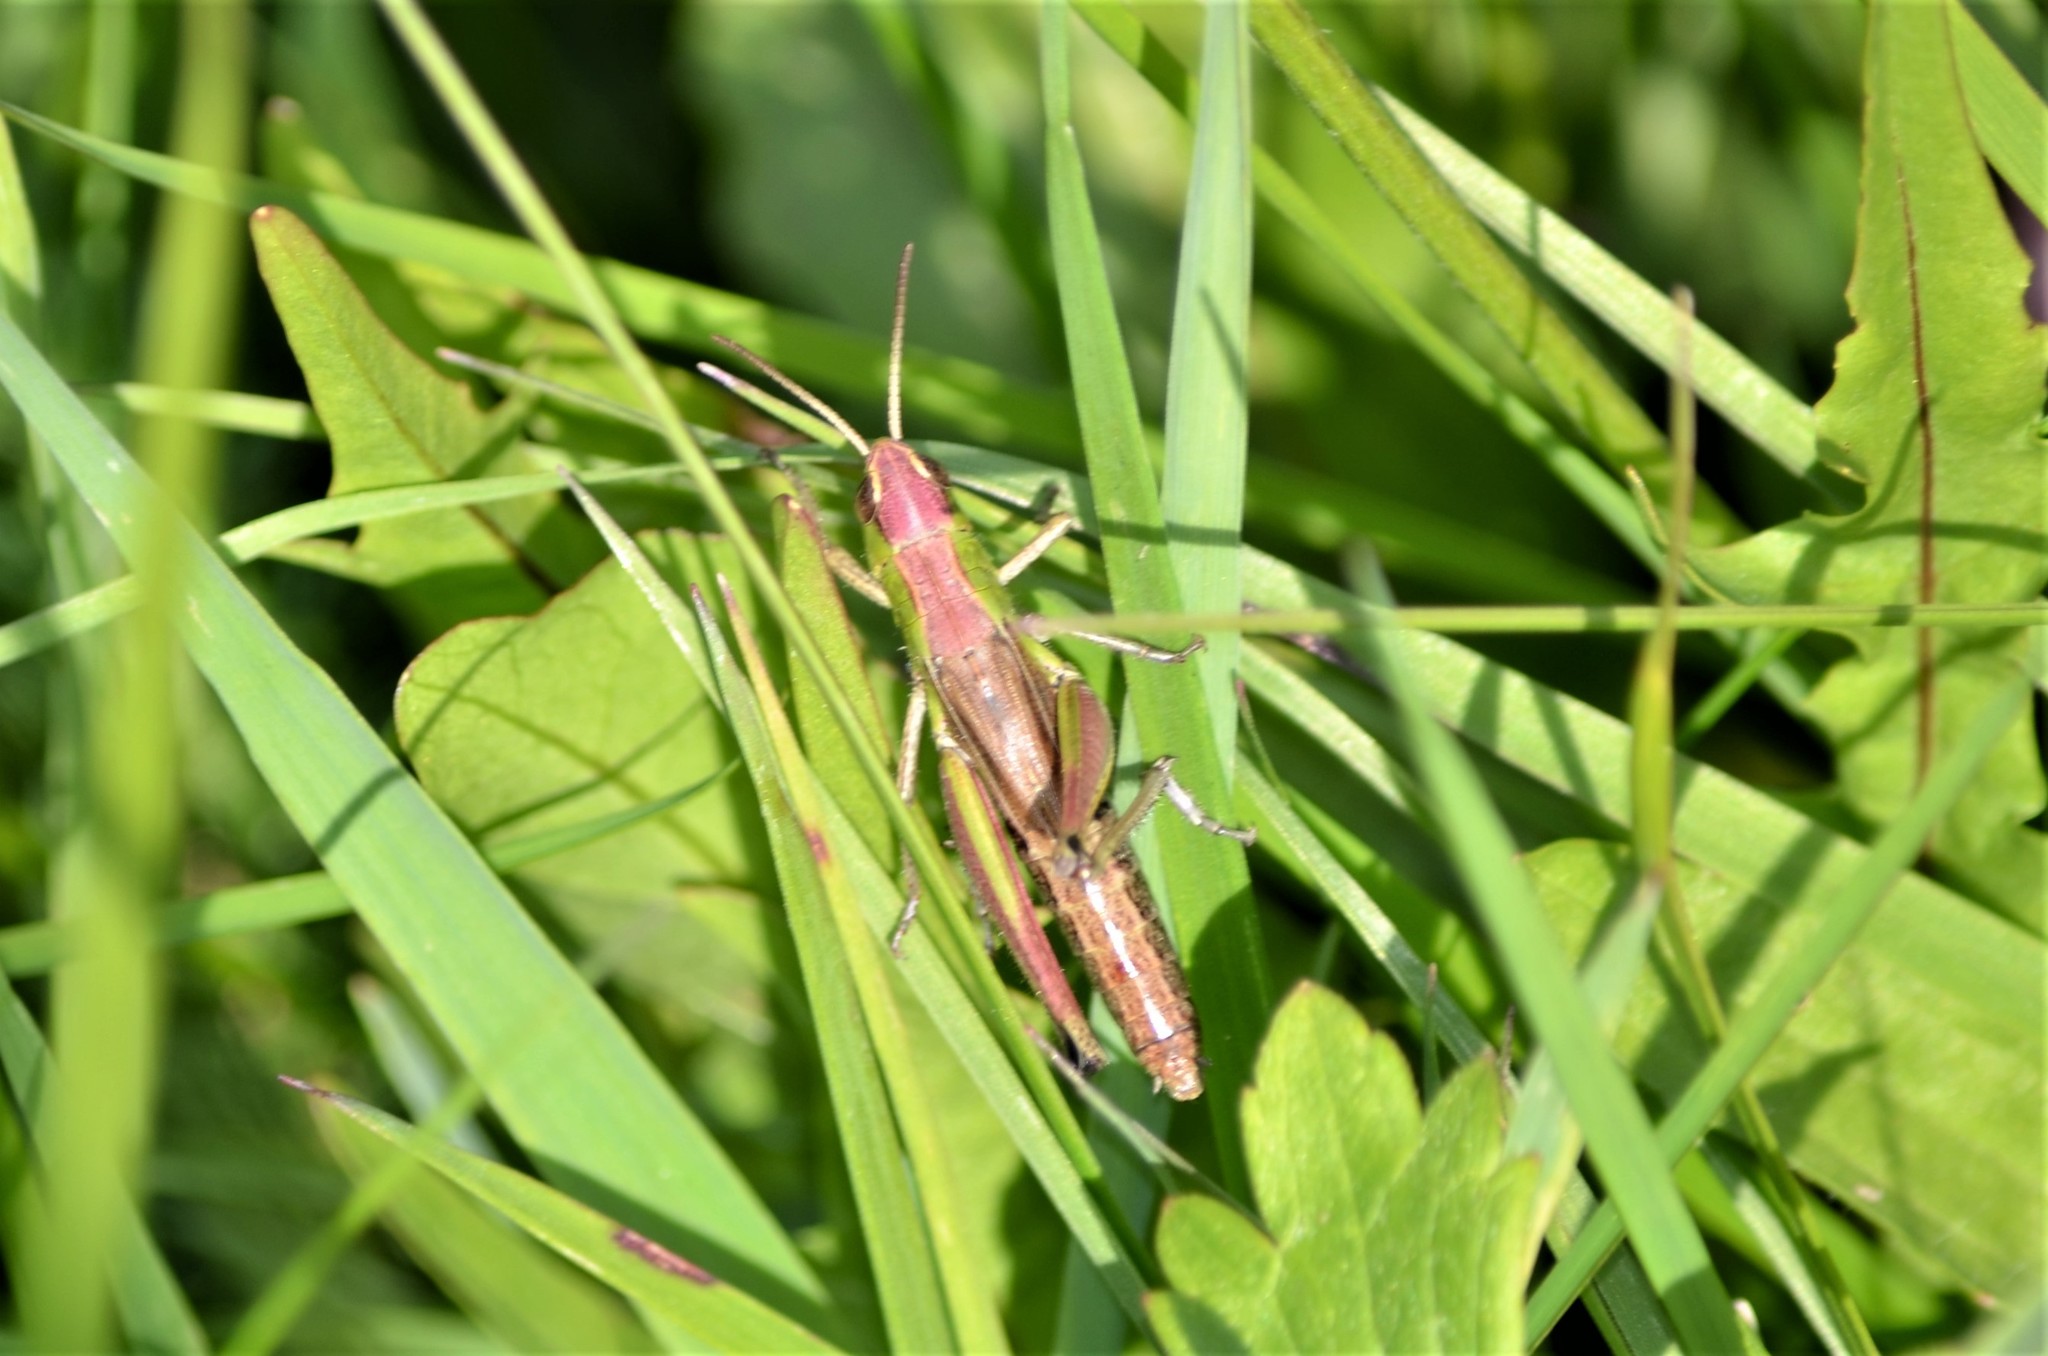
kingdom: Animalia
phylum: Arthropoda
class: Insecta
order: Orthoptera
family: Acrididae
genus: Pseudochorthippus
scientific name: Pseudochorthippus parallelus
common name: Meadow grasshopper
